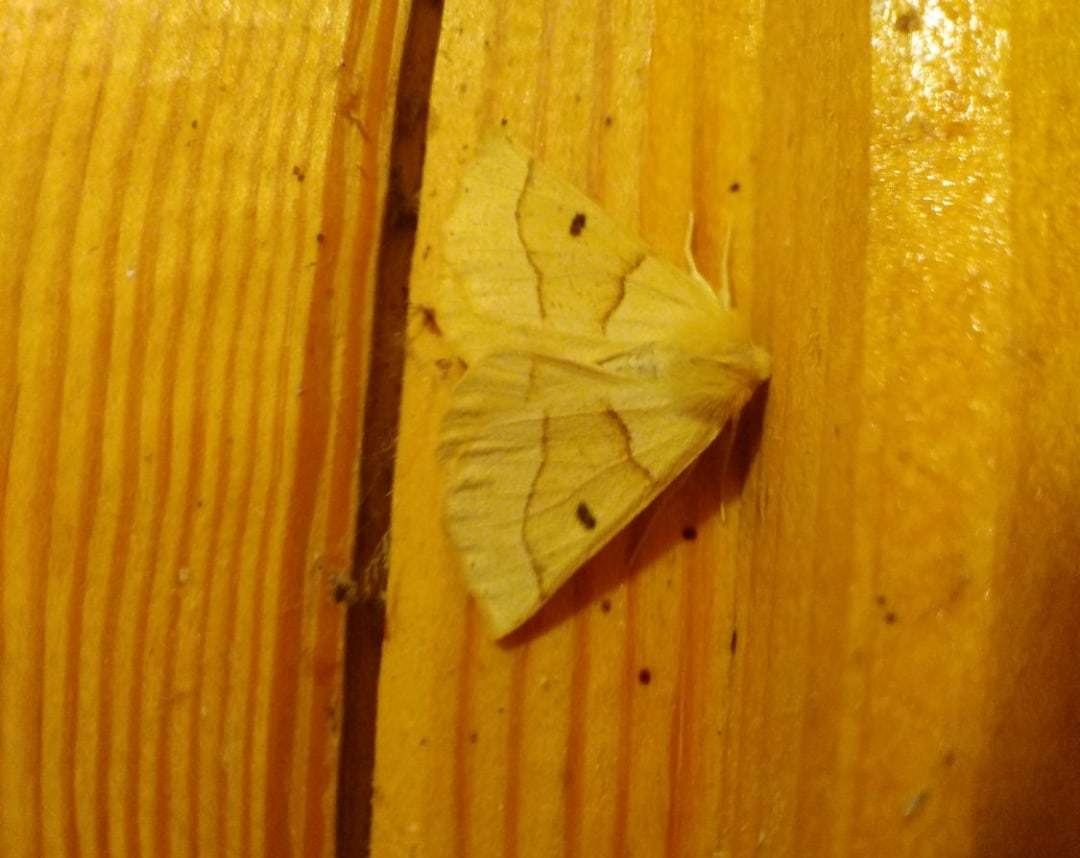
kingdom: Animalia
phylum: Arthropoda
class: Insecta
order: Lepidoptera
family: Geometridae
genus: Crocallis
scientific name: Crocallis elinguaria
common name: Scalloped oak
